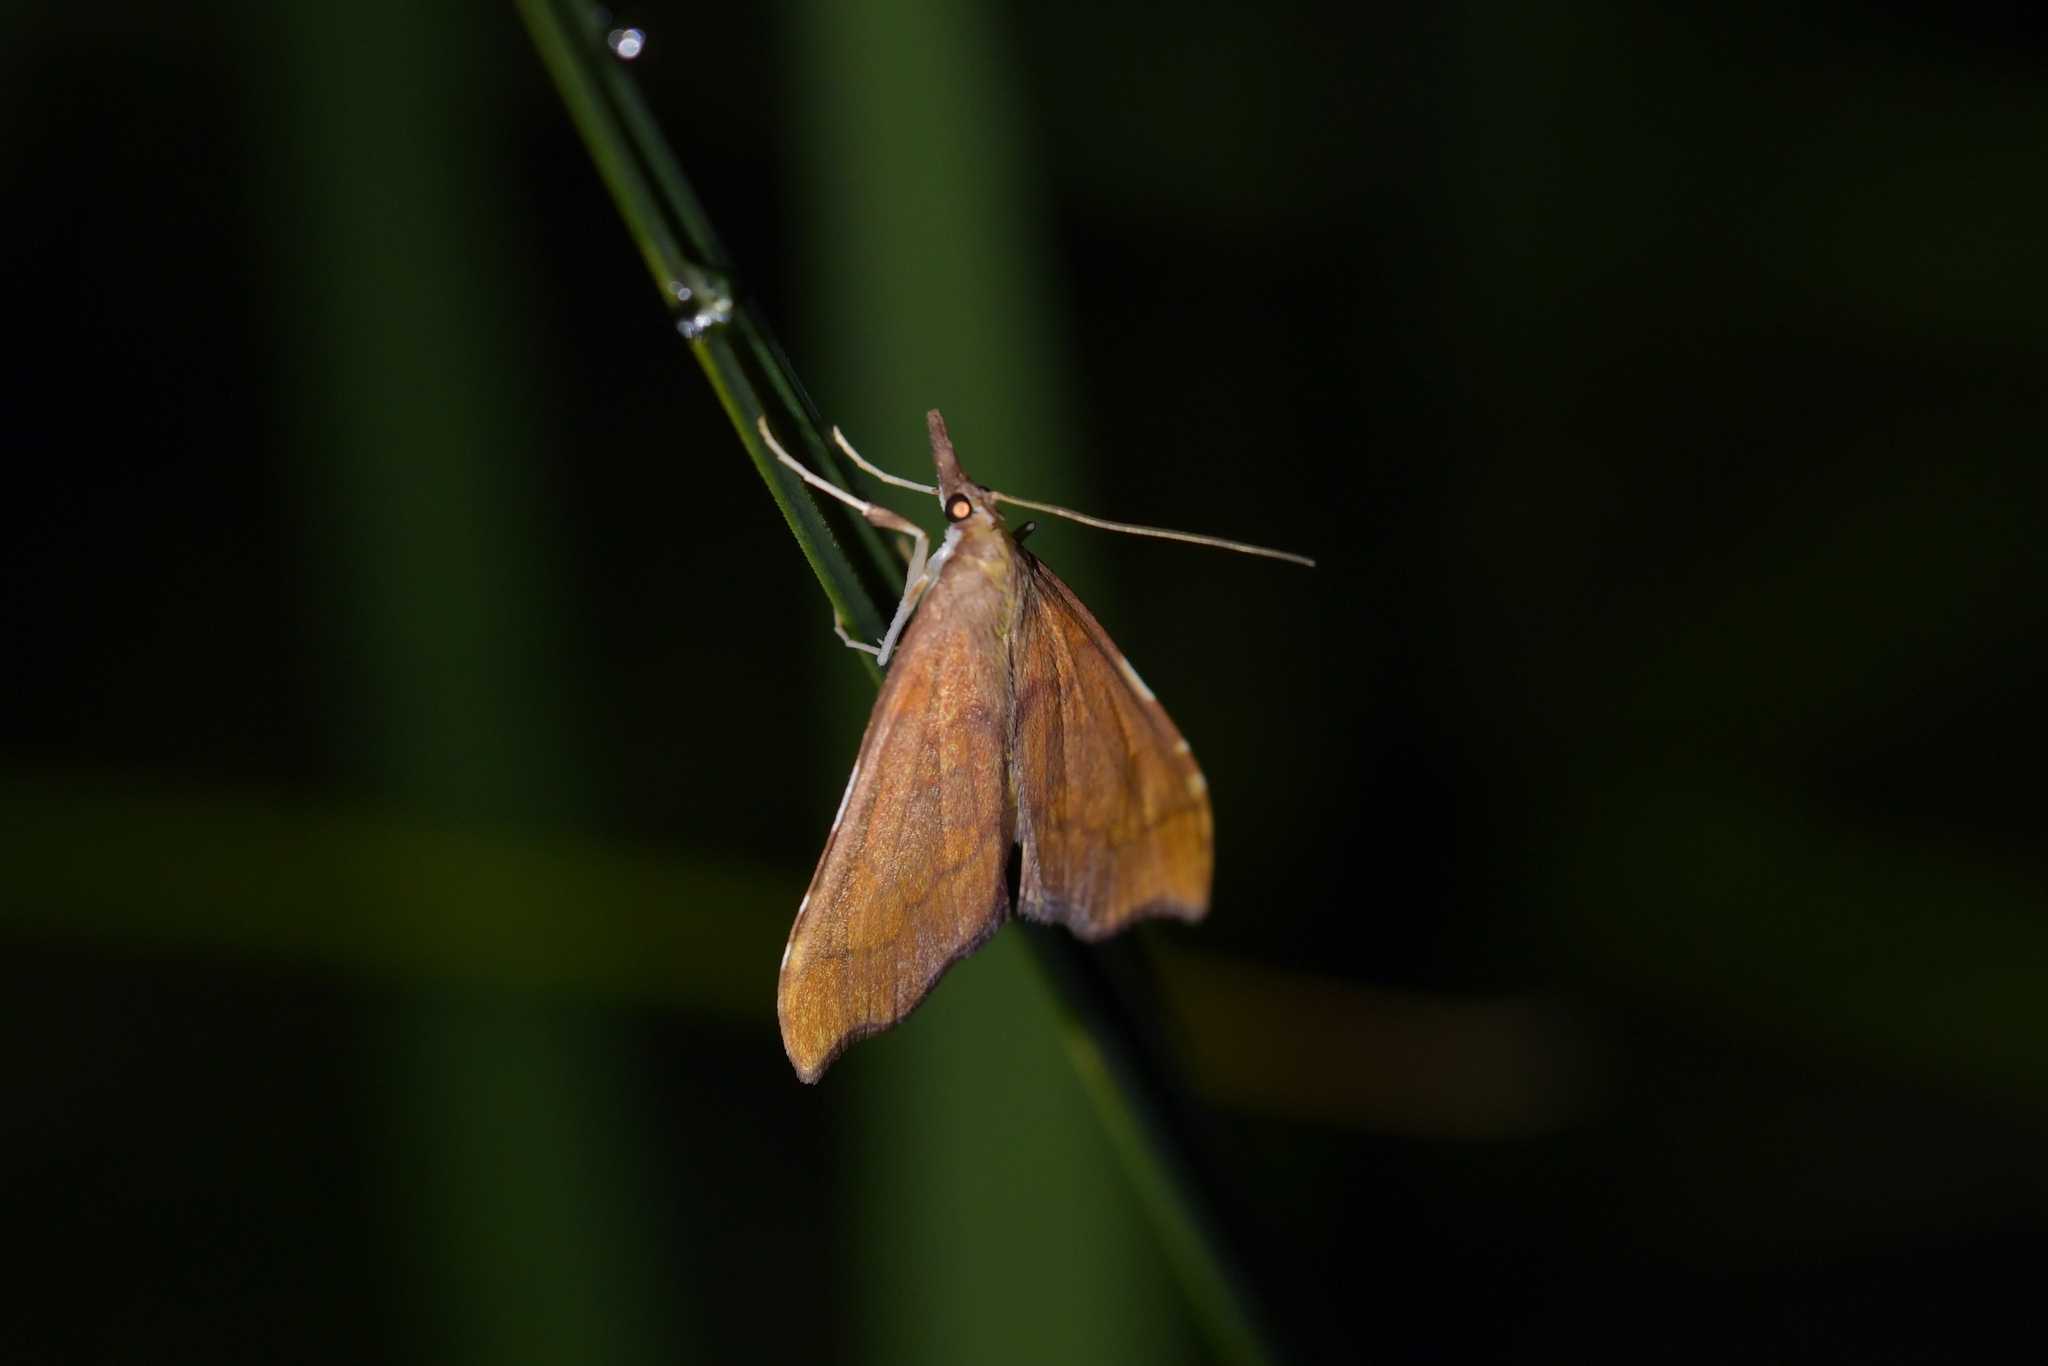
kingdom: Animalia
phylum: Arthropoda
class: Insecta
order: Lepidoptera
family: Crambidae
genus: Deana
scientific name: Deana hybreasalis
